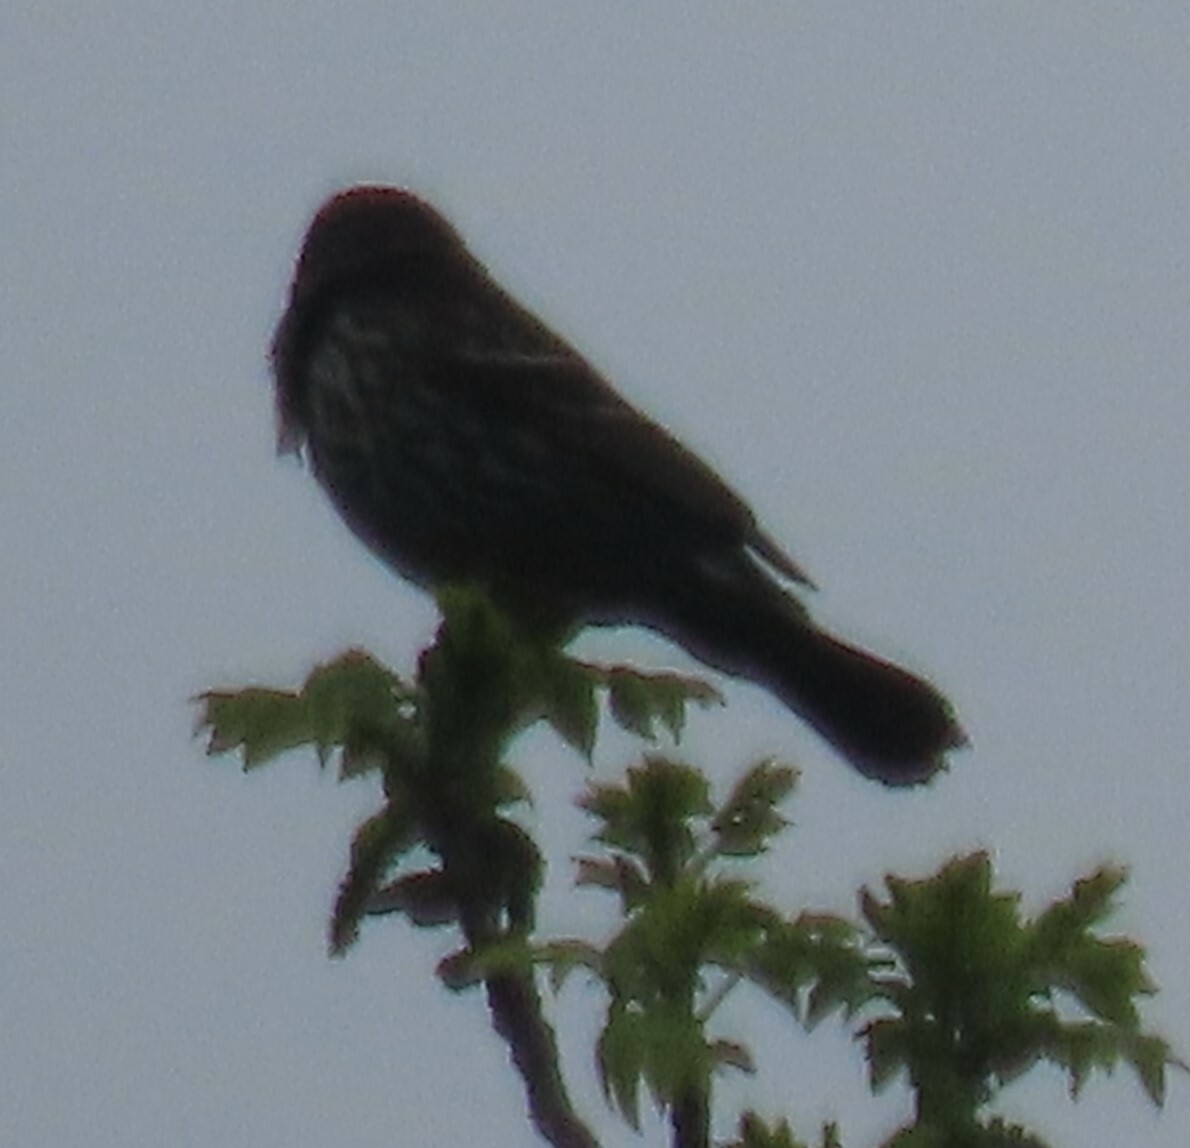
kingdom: Animalia
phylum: Chordata
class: Aves
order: Passeriformes
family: Icteridae
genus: Agelaius
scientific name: Agelaius phoeniceus
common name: Red-winged blackbird
